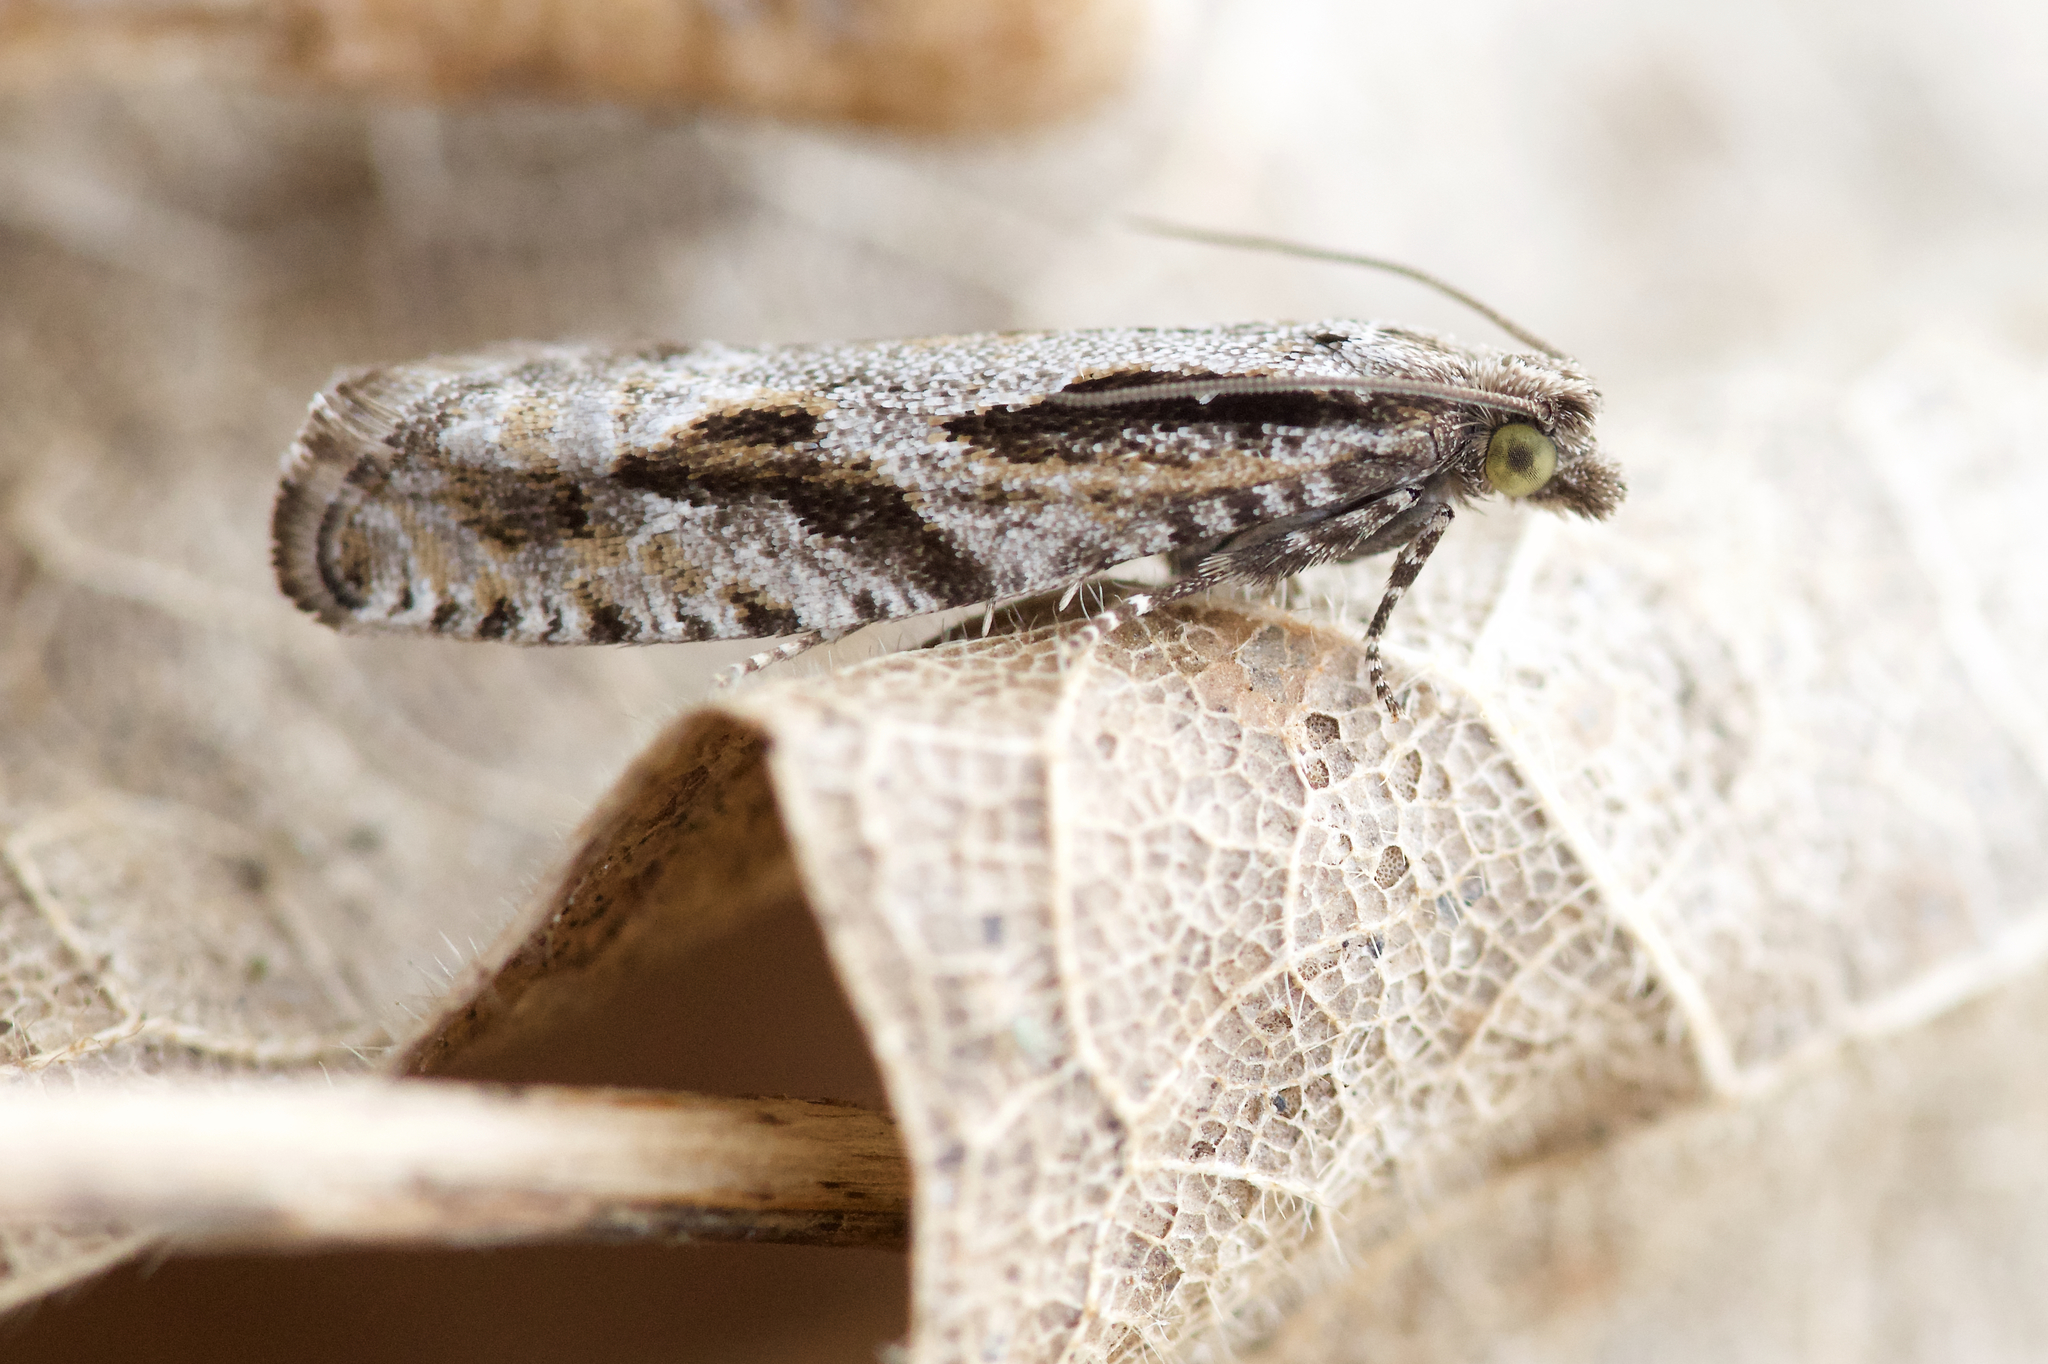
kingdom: Animalia
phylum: Arthropoda
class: Insecta
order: Lepidoptera
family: Tortricidae
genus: Epinotia
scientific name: Epinotia sotipena
